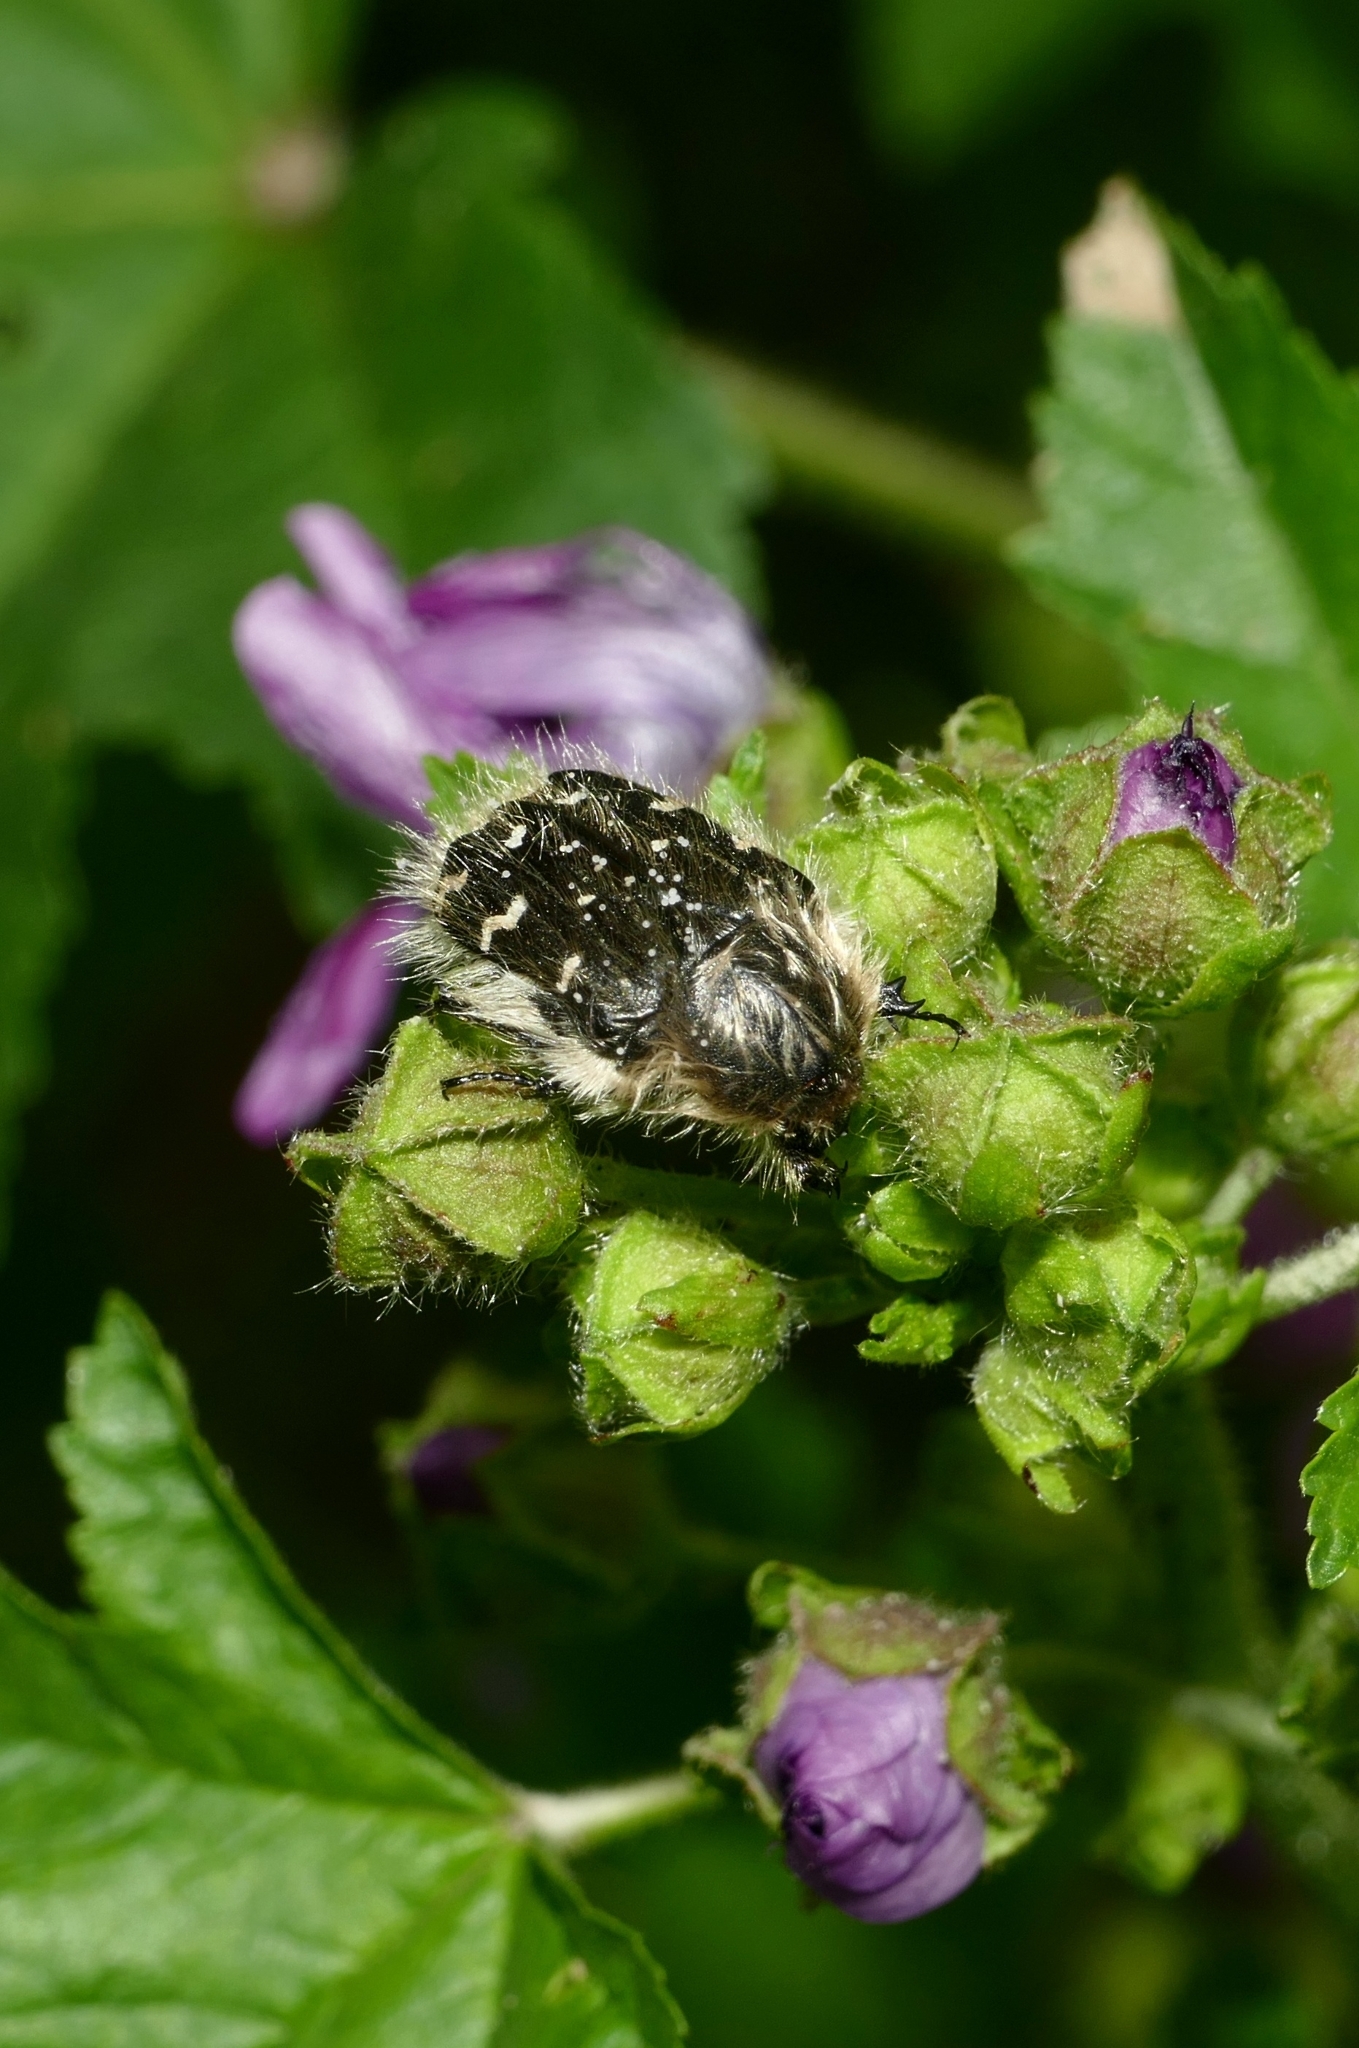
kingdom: Animalia
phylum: Arthropoda
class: Insecta
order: Coleoptera
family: Scarabaeidae
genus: Tropinota
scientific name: Tropinota hirta
